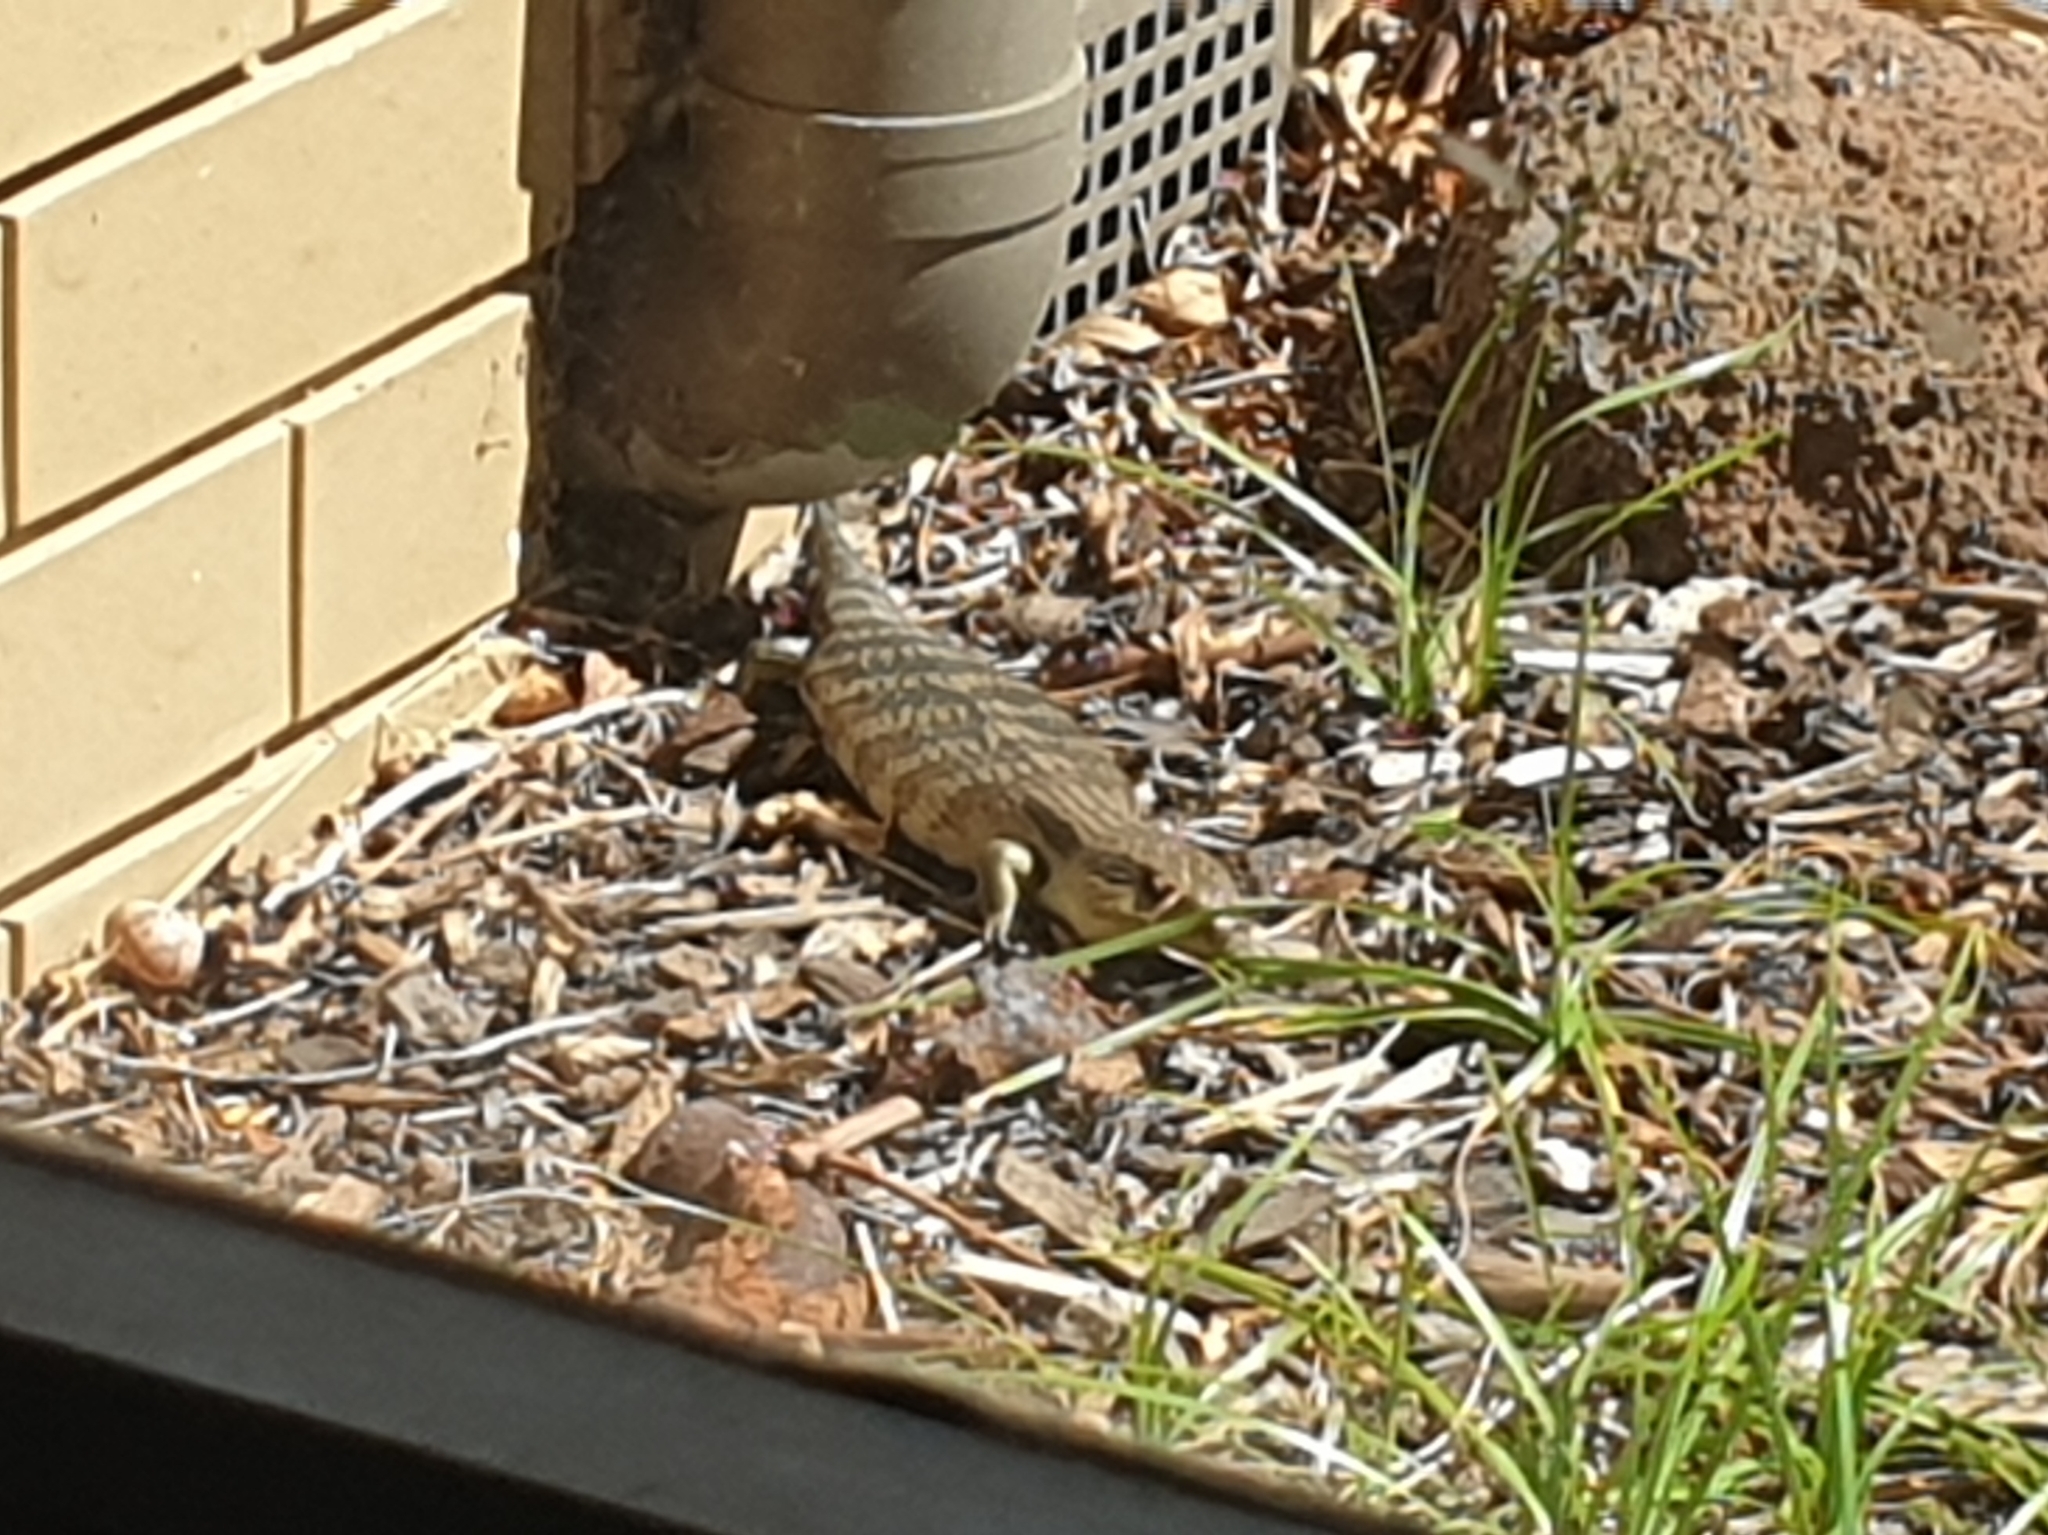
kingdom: Animalia
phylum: Chordata
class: Squamata
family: Scincidae
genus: Tiliqua
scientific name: Tiliqua scincoides
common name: Common bluetongue
